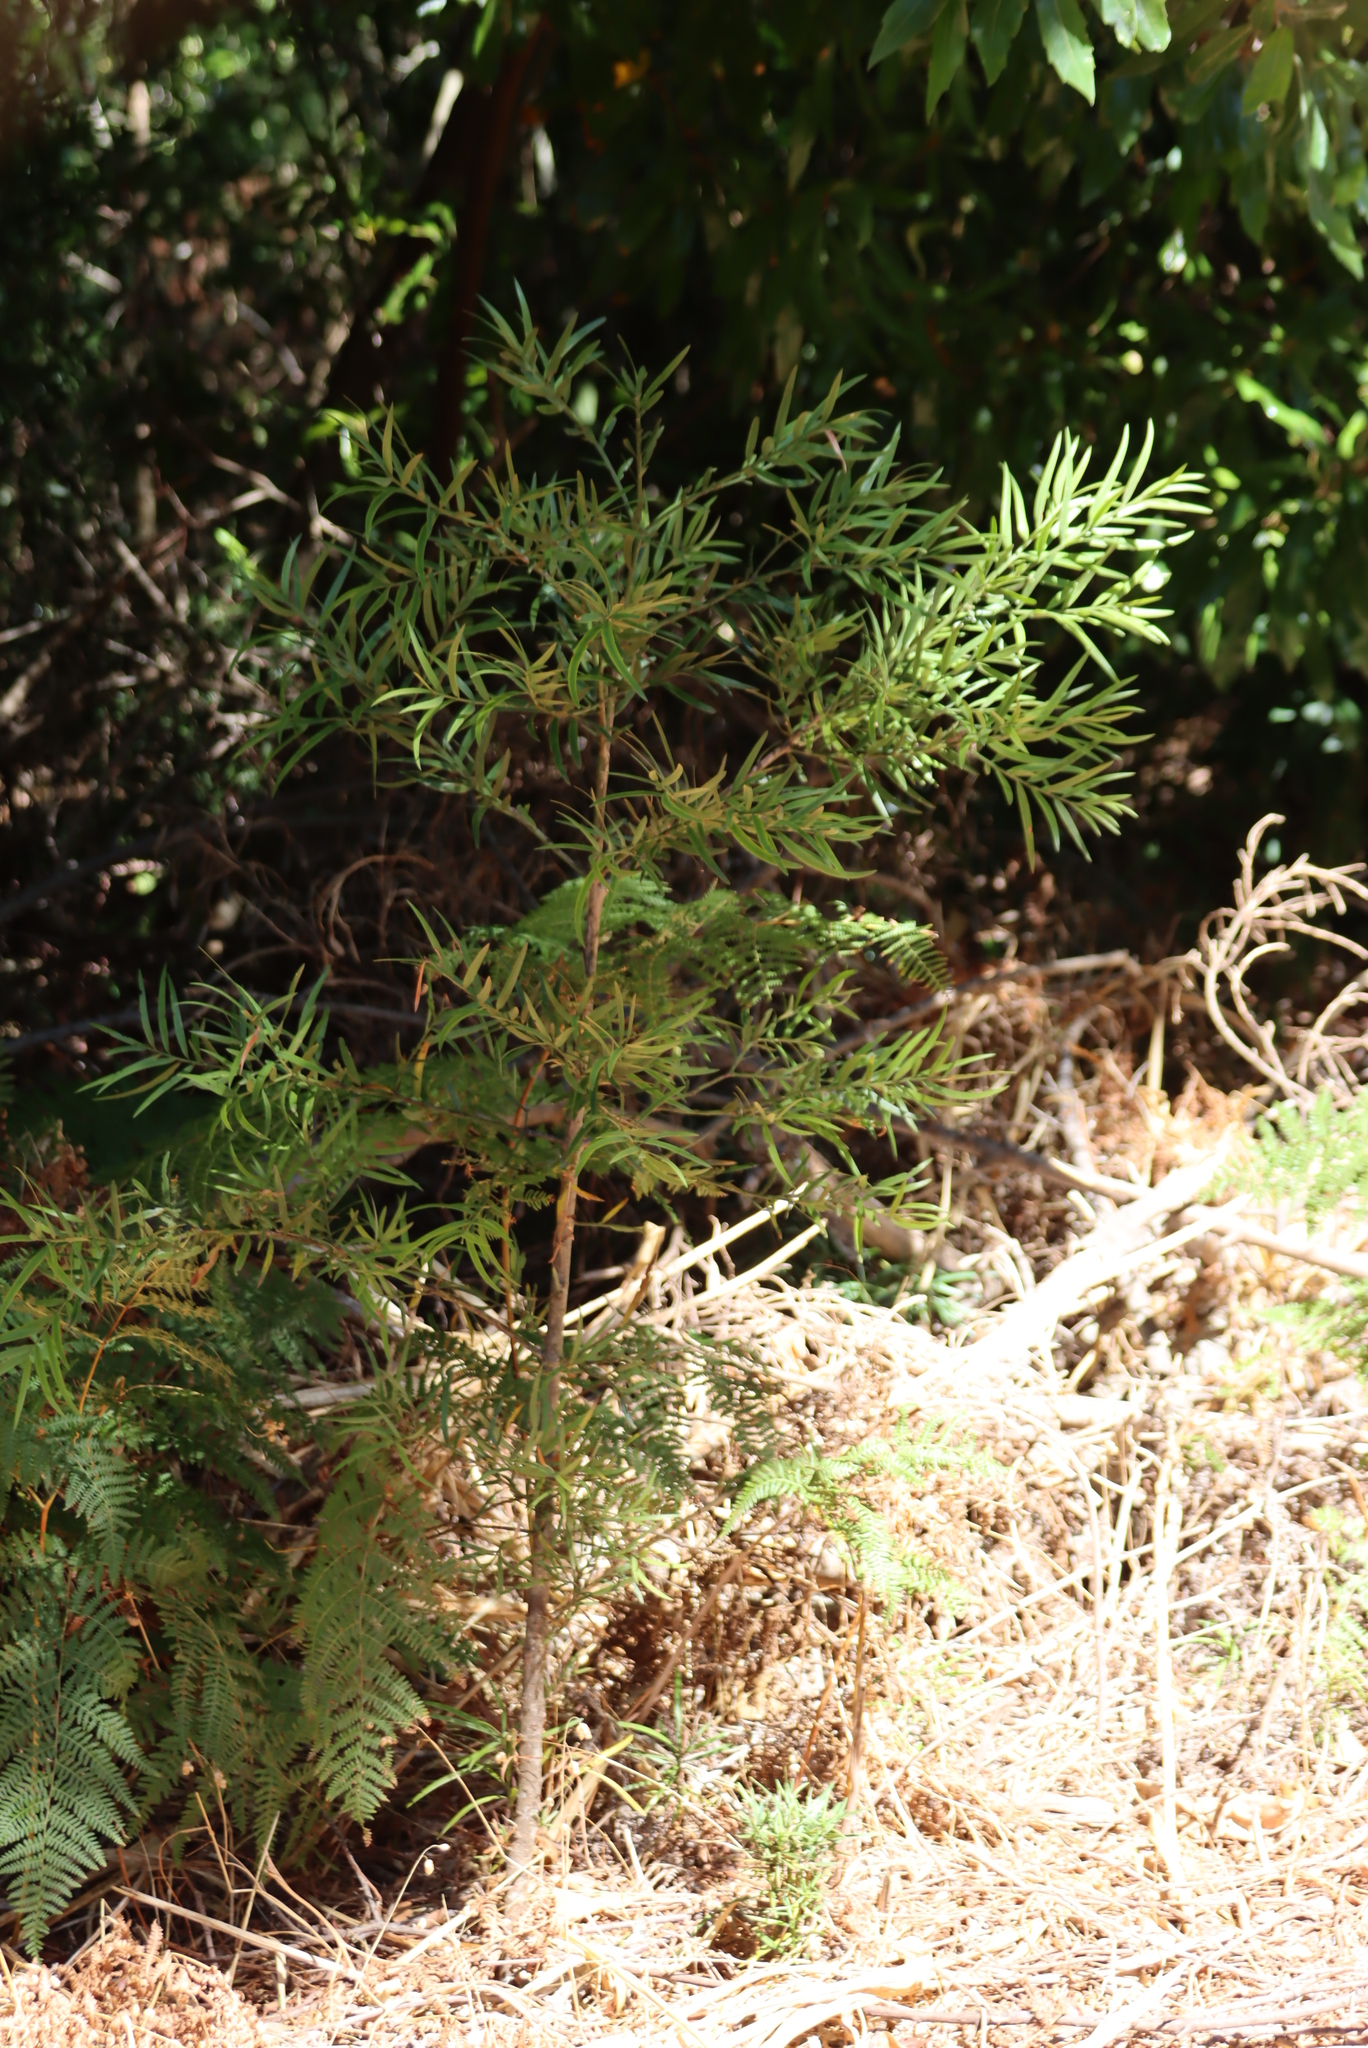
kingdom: Plantae
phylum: Tracheophyta
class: Pinopsida
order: Pinales
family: Podocarpaceae
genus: Afrocarpus
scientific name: Afrocarpus falcatus
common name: Bastard yellowwood
